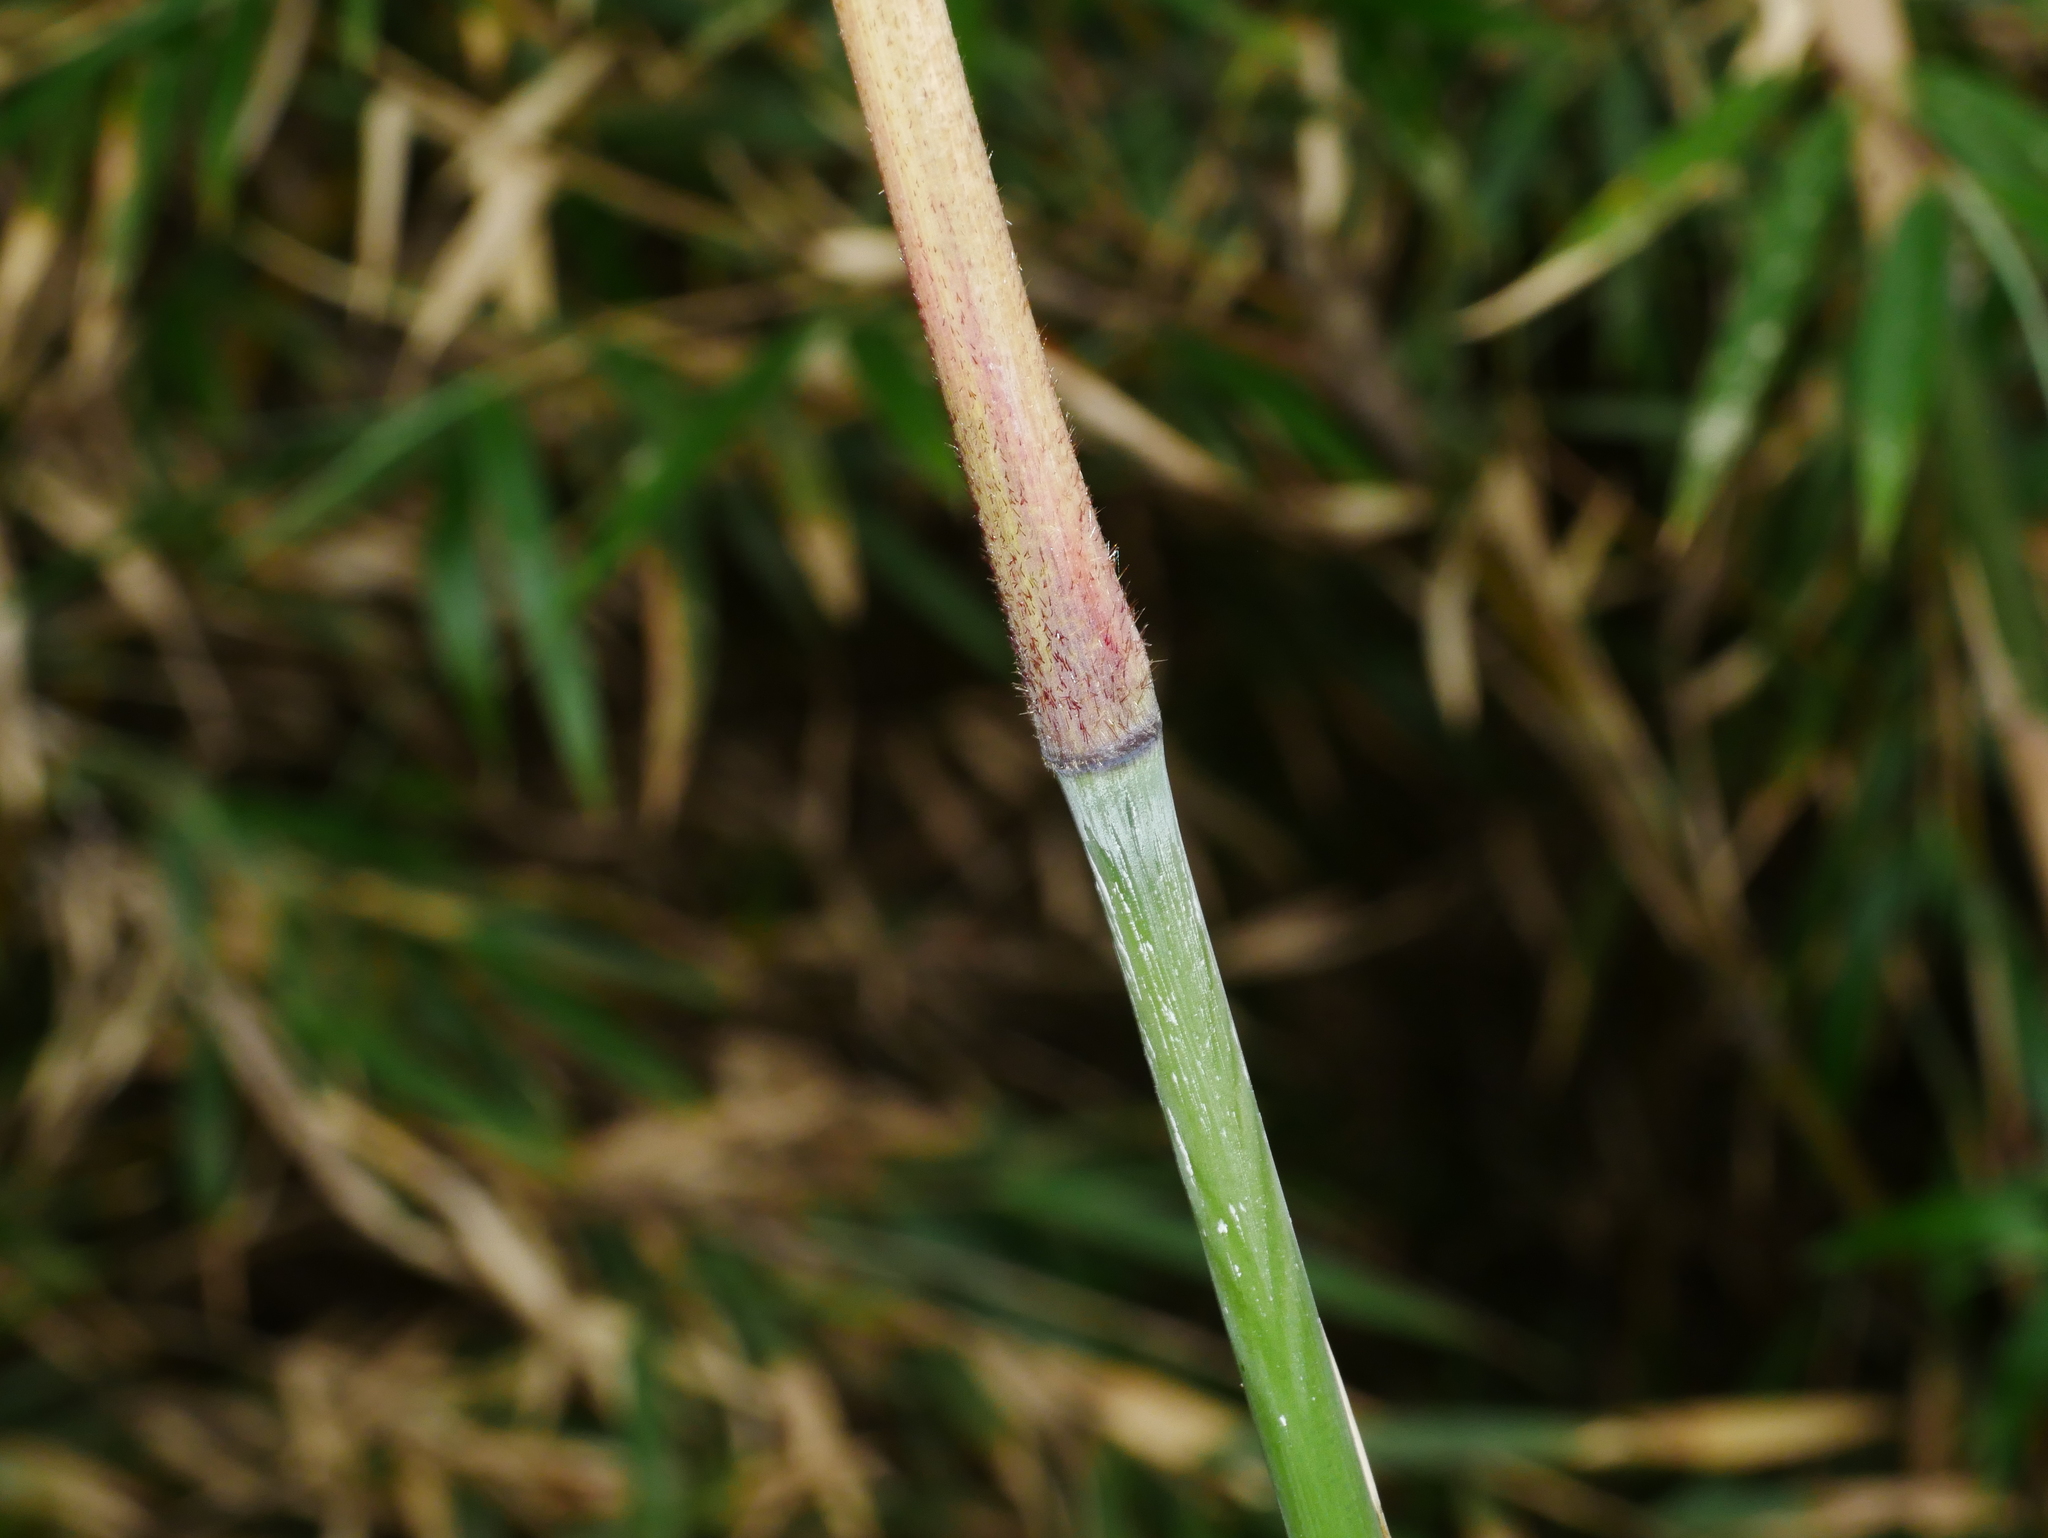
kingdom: Plantae
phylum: Tracheophyta
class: Liliopsida
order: Poales
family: Poaceae
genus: Yushania
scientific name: Yushania niitakayamensis
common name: Yushan cane
